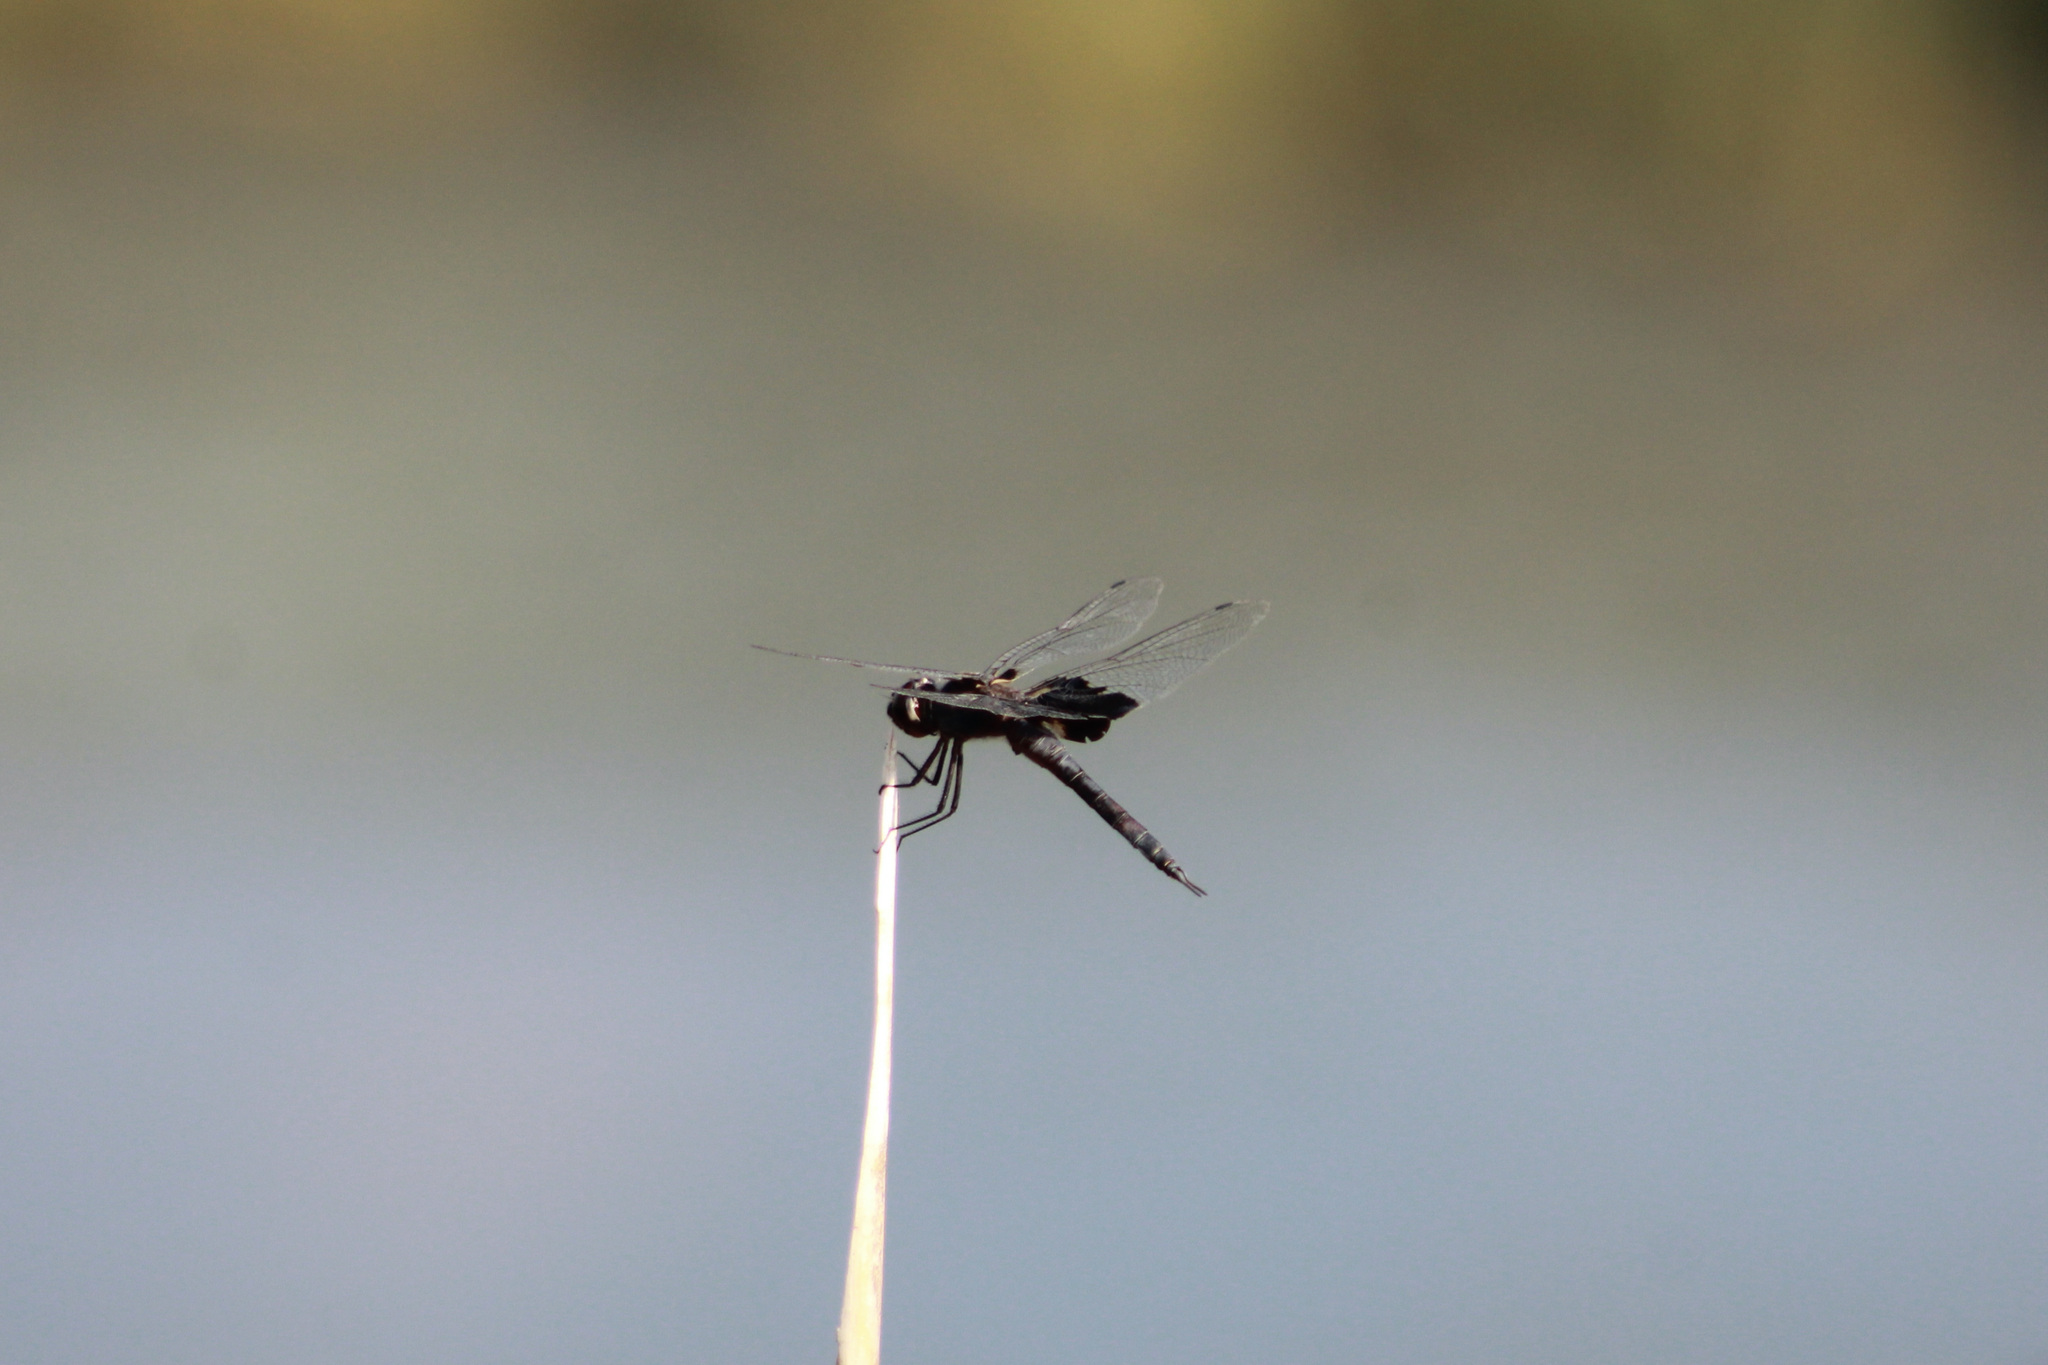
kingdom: Animalia
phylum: Arthropoda
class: Insecta
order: Odonata
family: Libellulidae
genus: Tramea
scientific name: Tramea lacerata
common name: Black saddlebags
